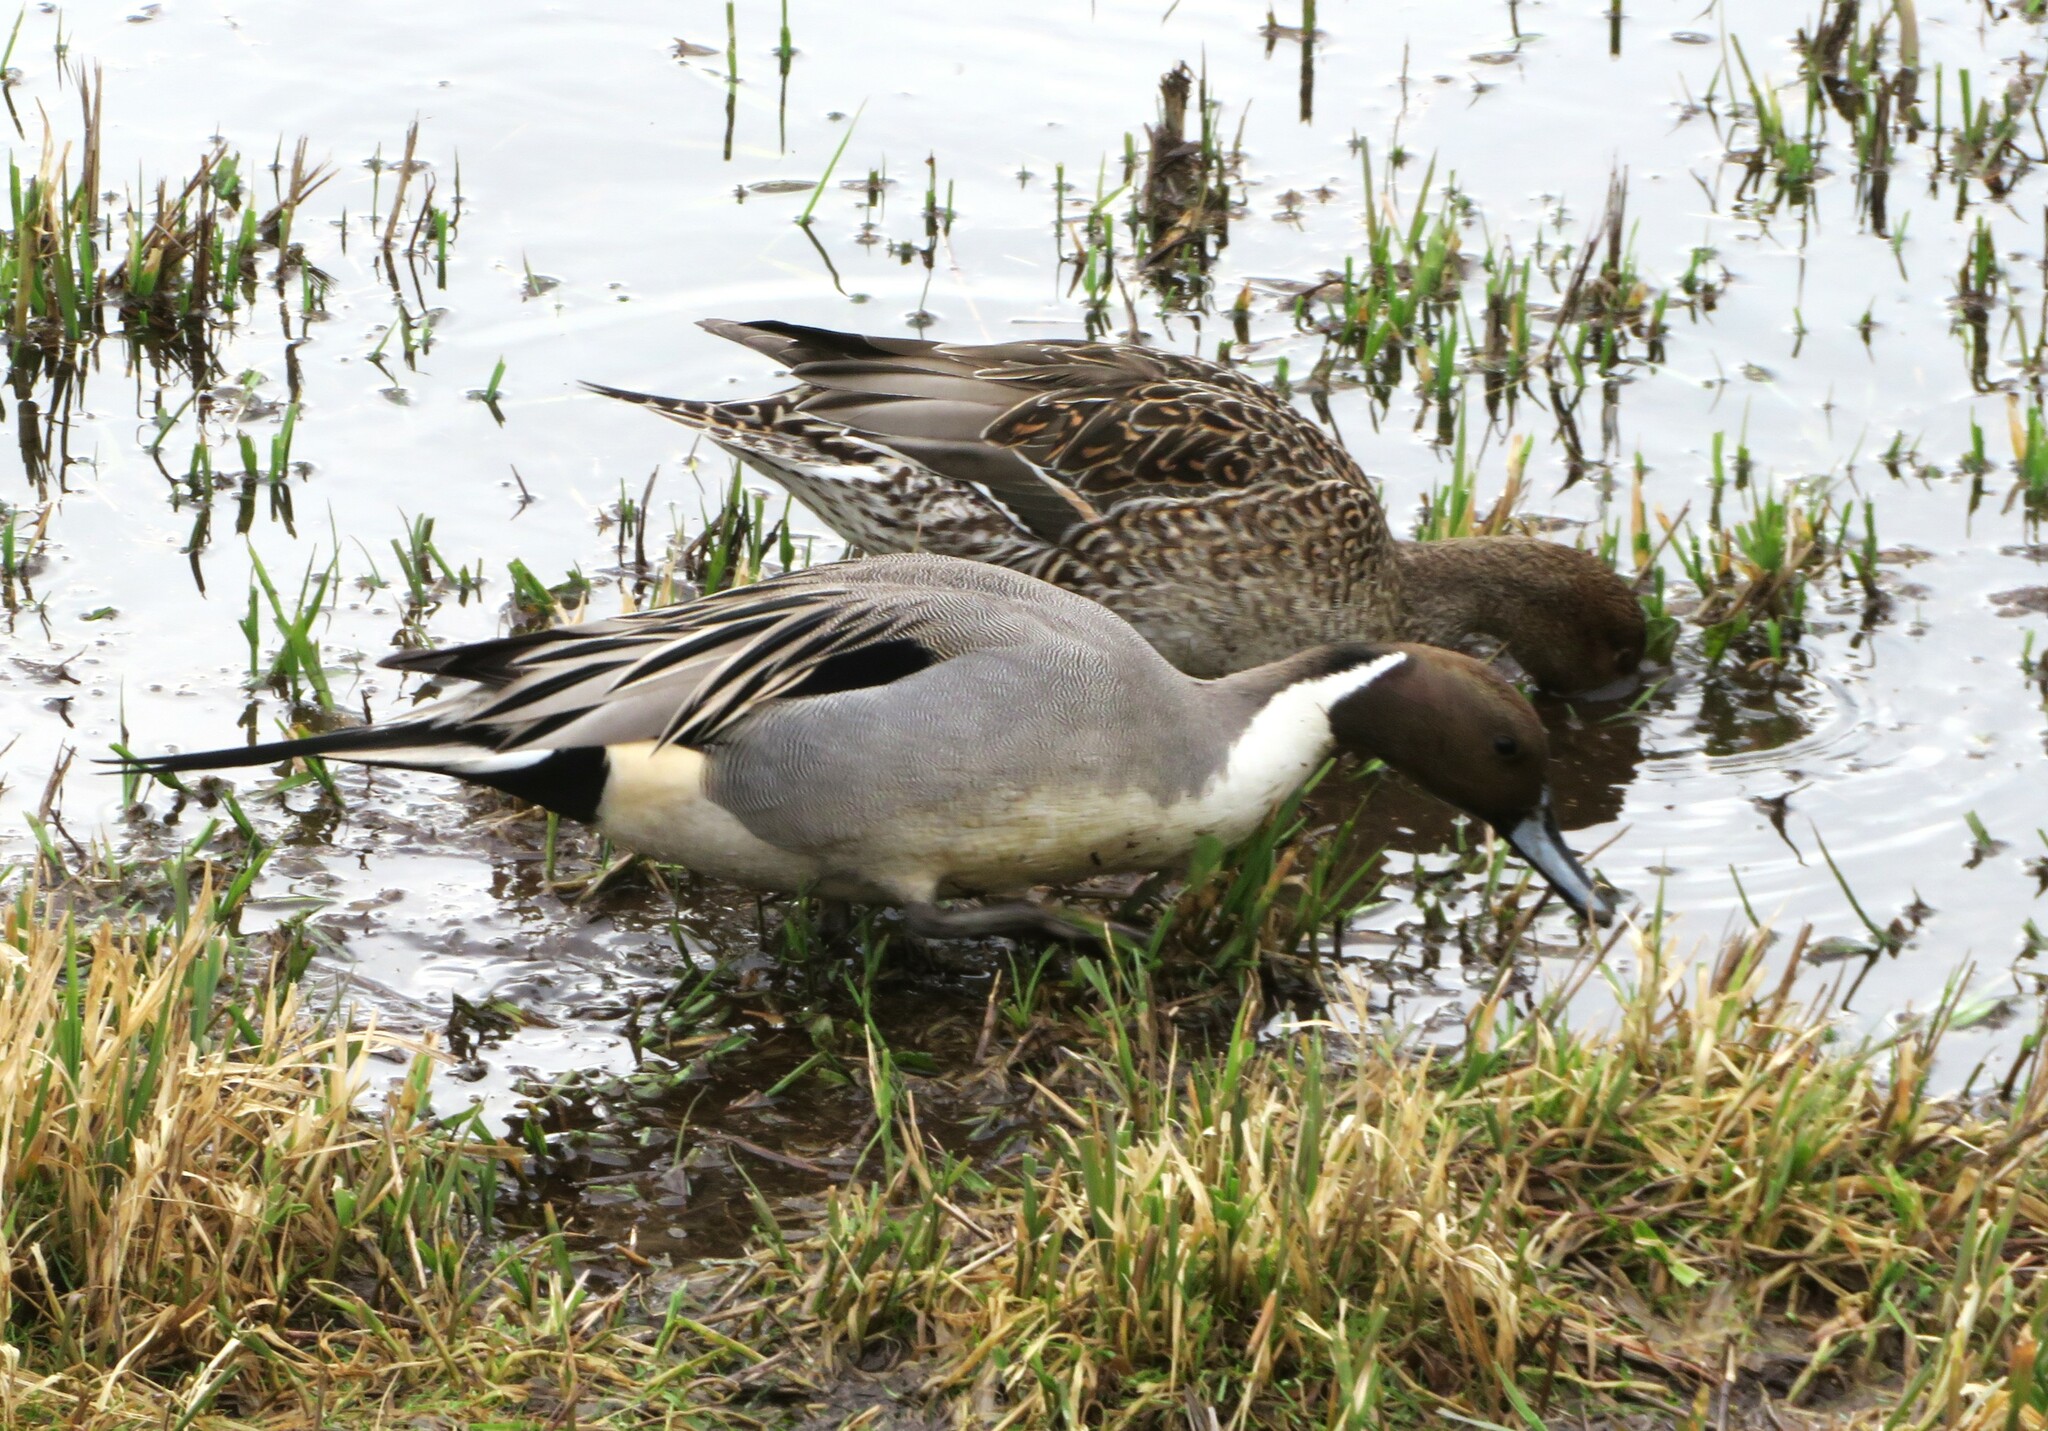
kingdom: Animalia
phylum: Chordata
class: Aves
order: Anseriformes
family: Anatidae
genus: Anas
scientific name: Anas acuta
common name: Northern pintail
